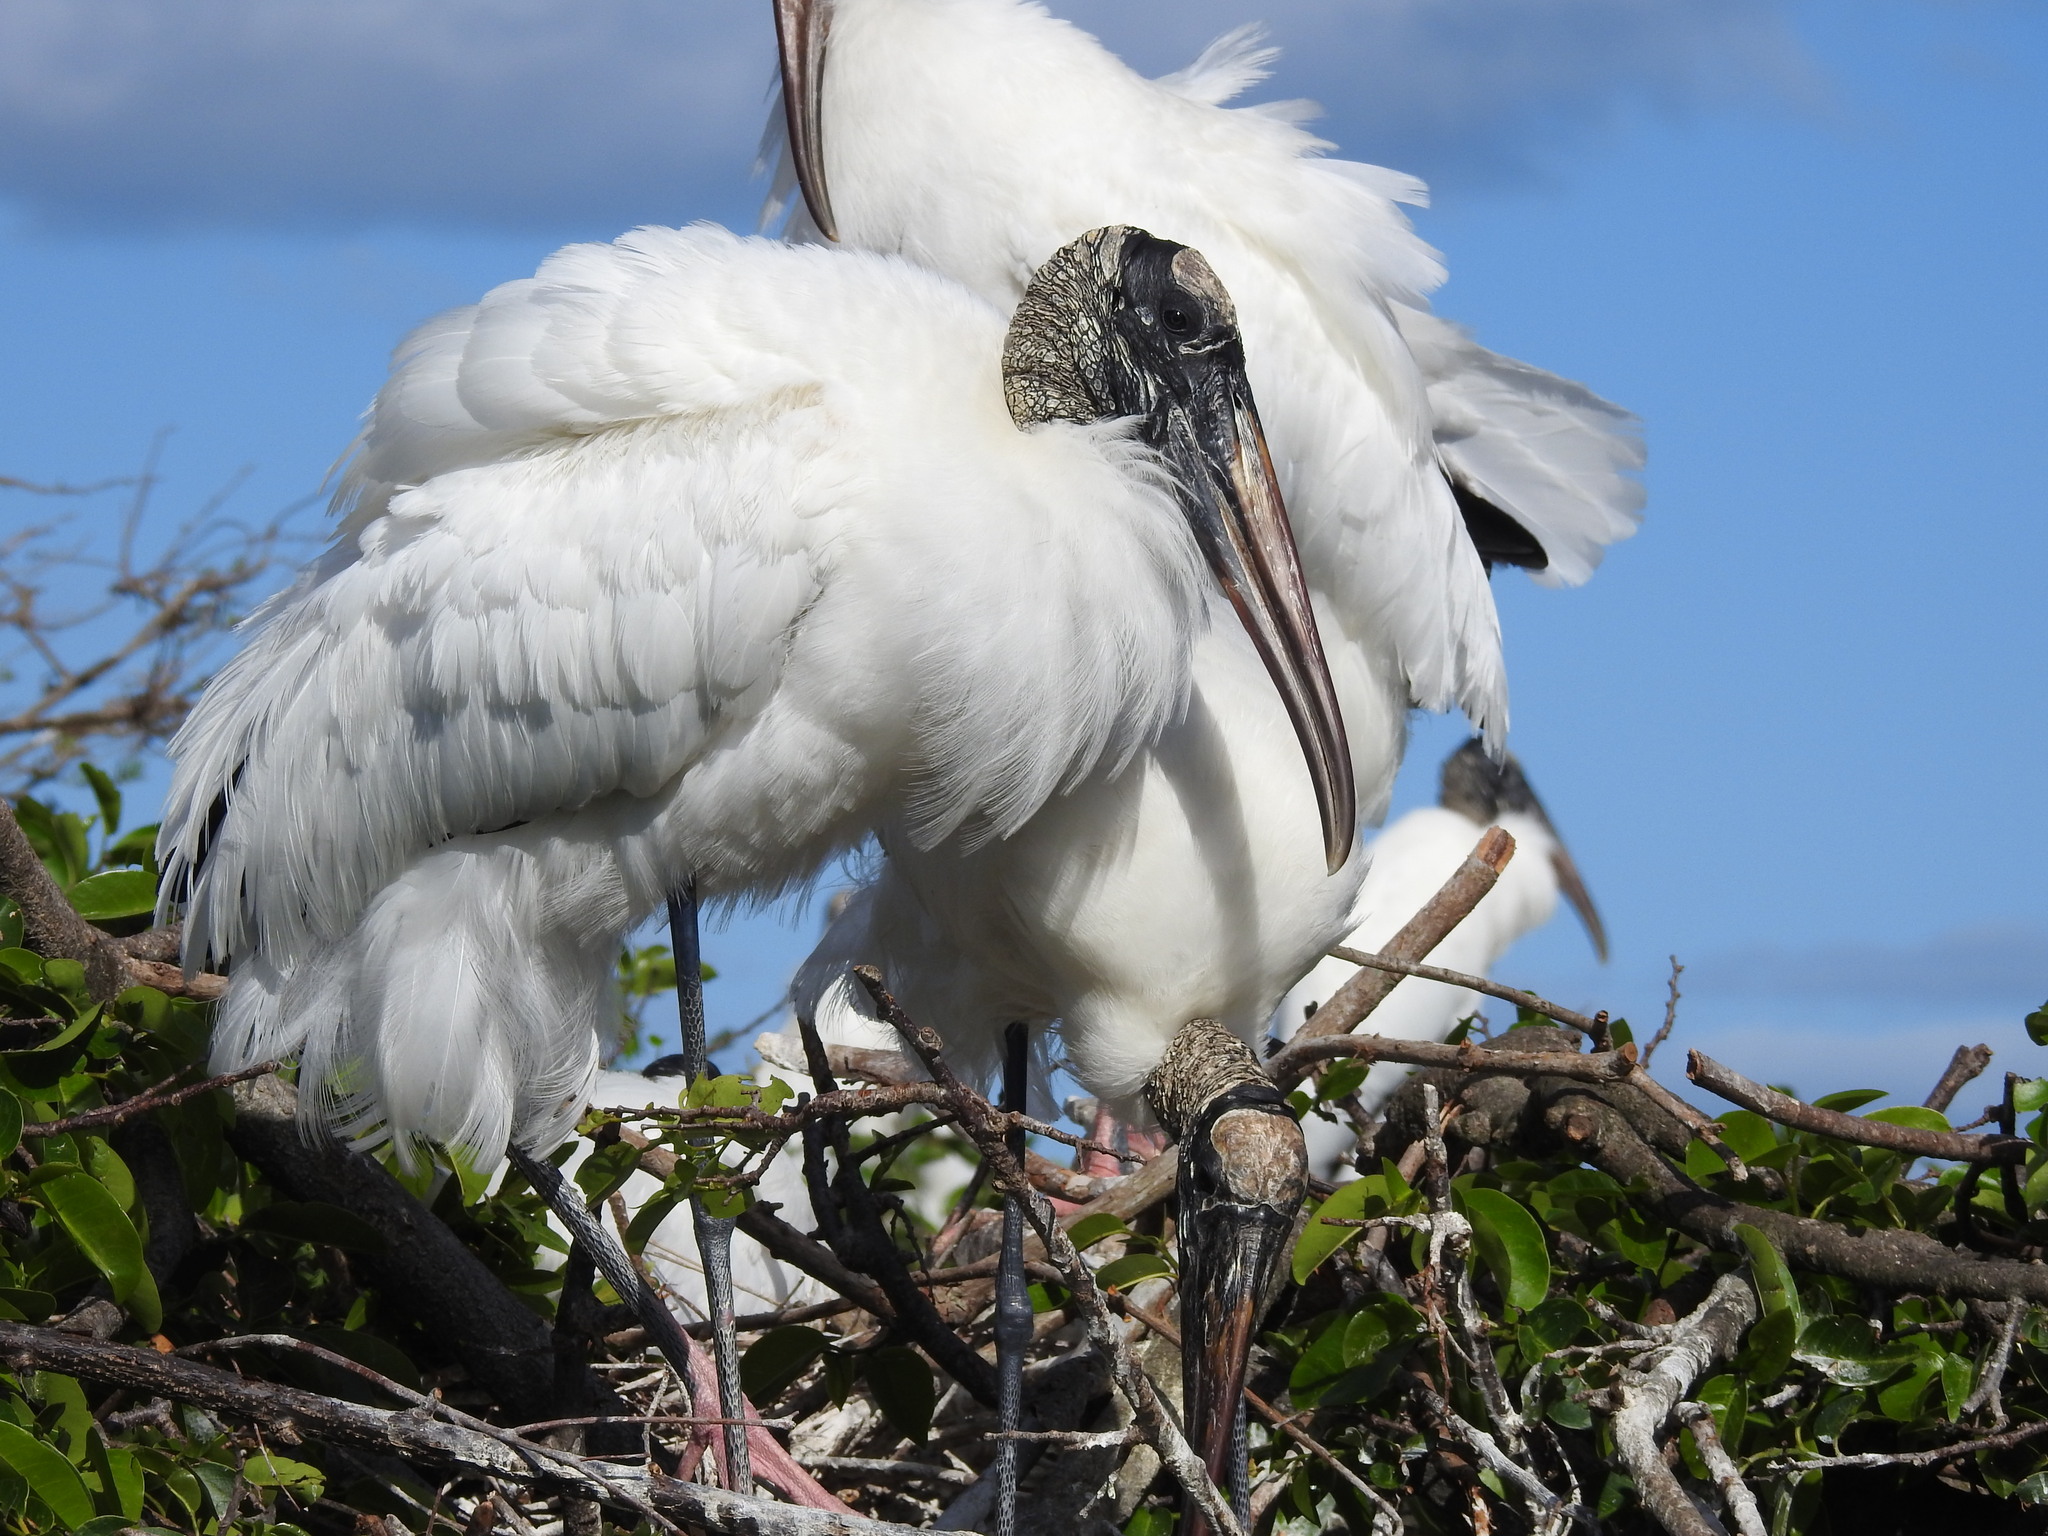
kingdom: Animalia
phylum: Chordata
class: Aves
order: Ciconiiformes
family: Ciconiidae
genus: Mycteria
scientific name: Mycteria americana
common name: Wood stork
